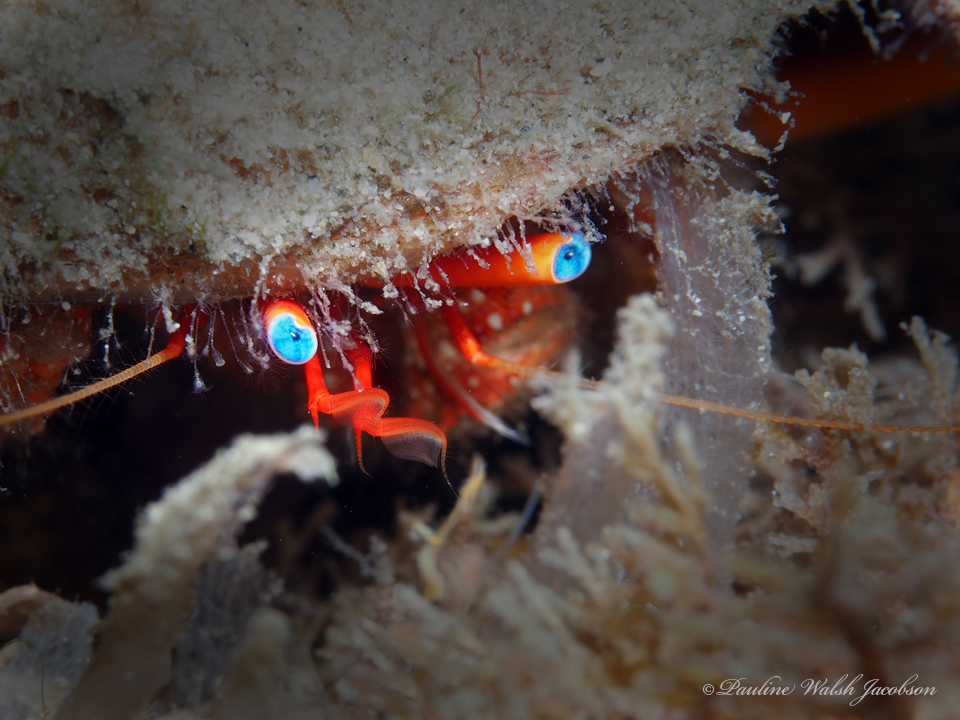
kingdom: Animalia
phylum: Arthropoda
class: Malacostraca
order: Decapoda
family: Diogenidae
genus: Paguristes
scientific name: Paguristes sericeus
